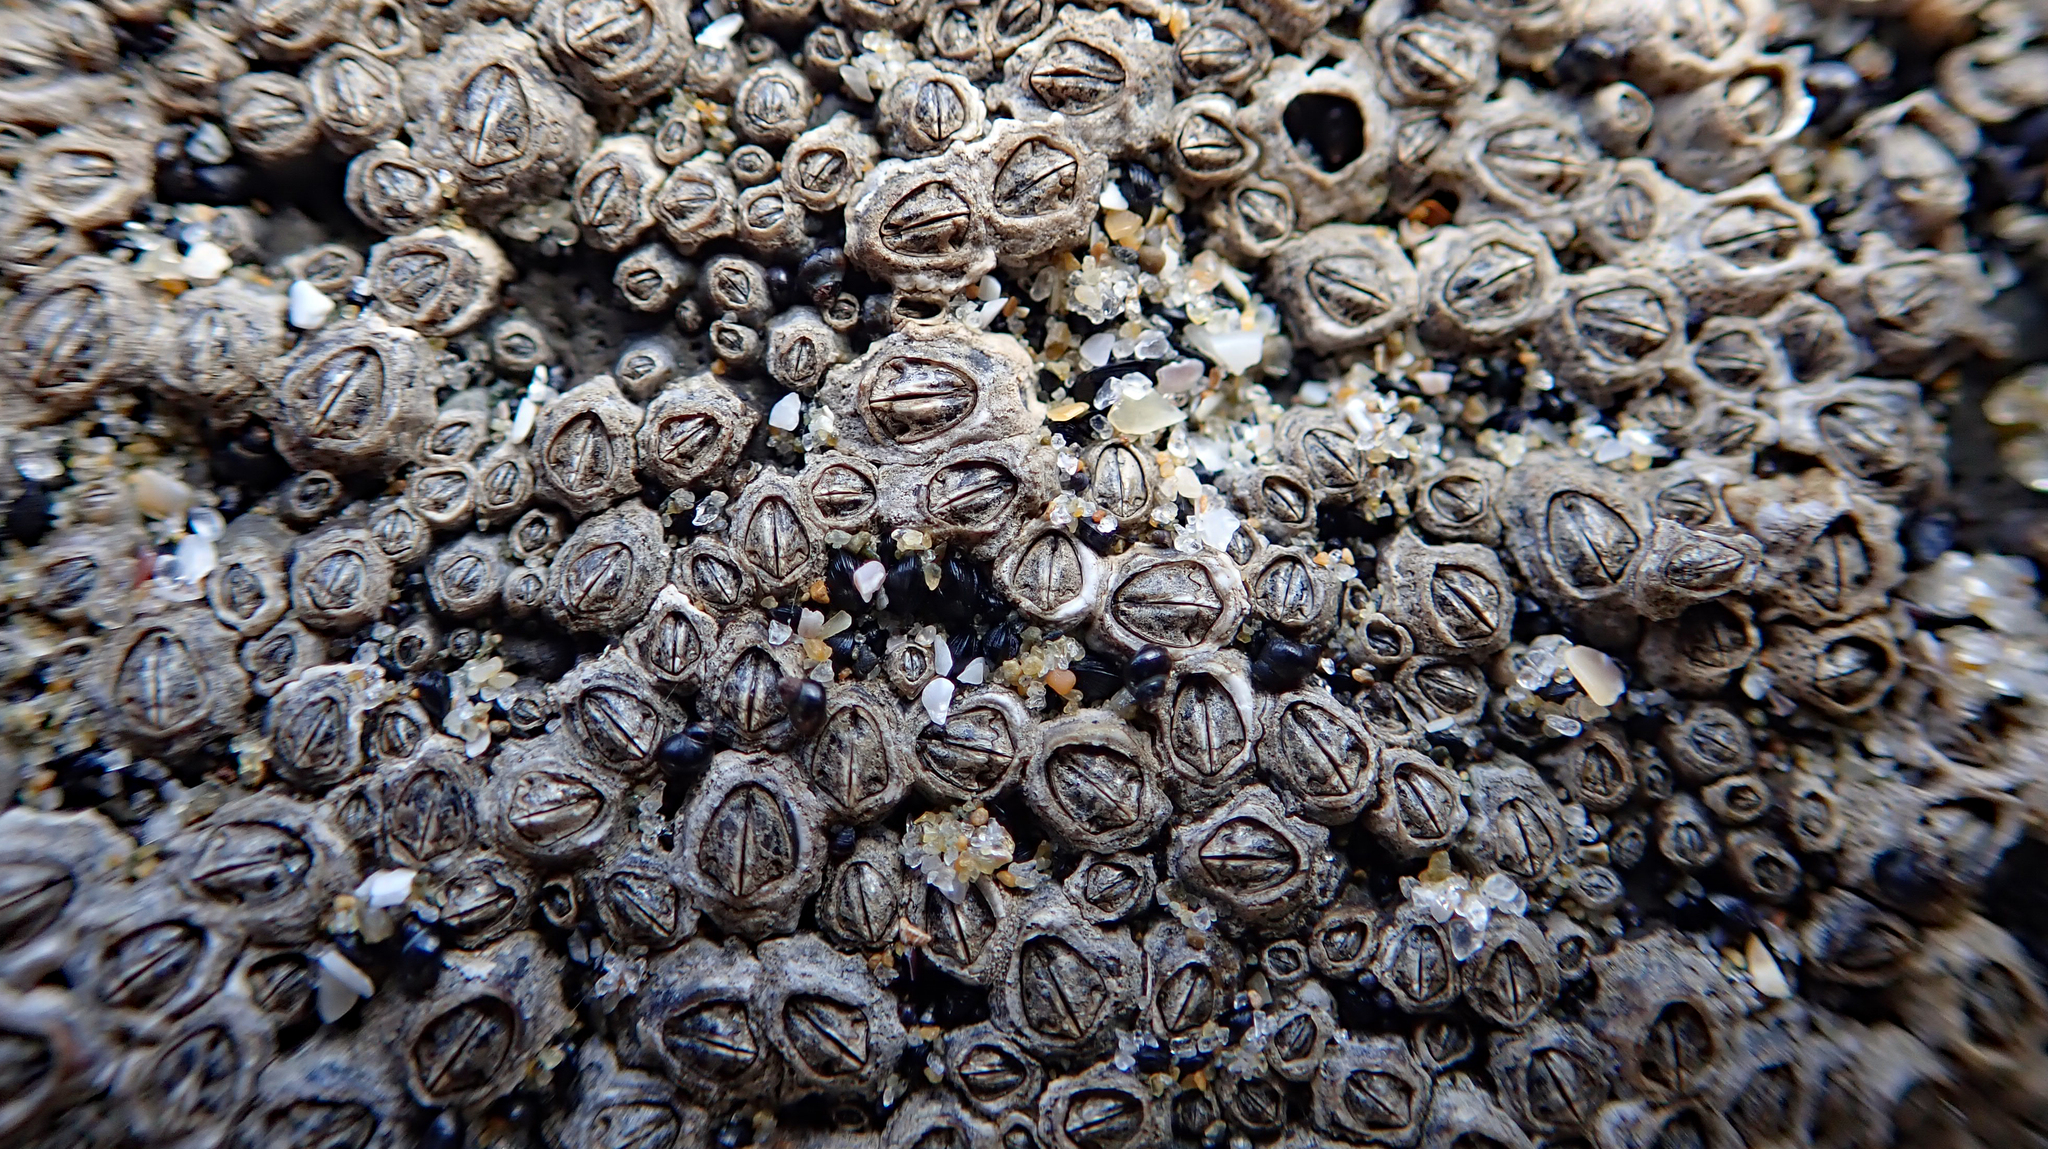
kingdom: Animalia
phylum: Arthropoda
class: Maxillopoda
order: Sessilia
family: Chthamalidae
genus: Chamaesipho
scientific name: Chamaesipho columna
